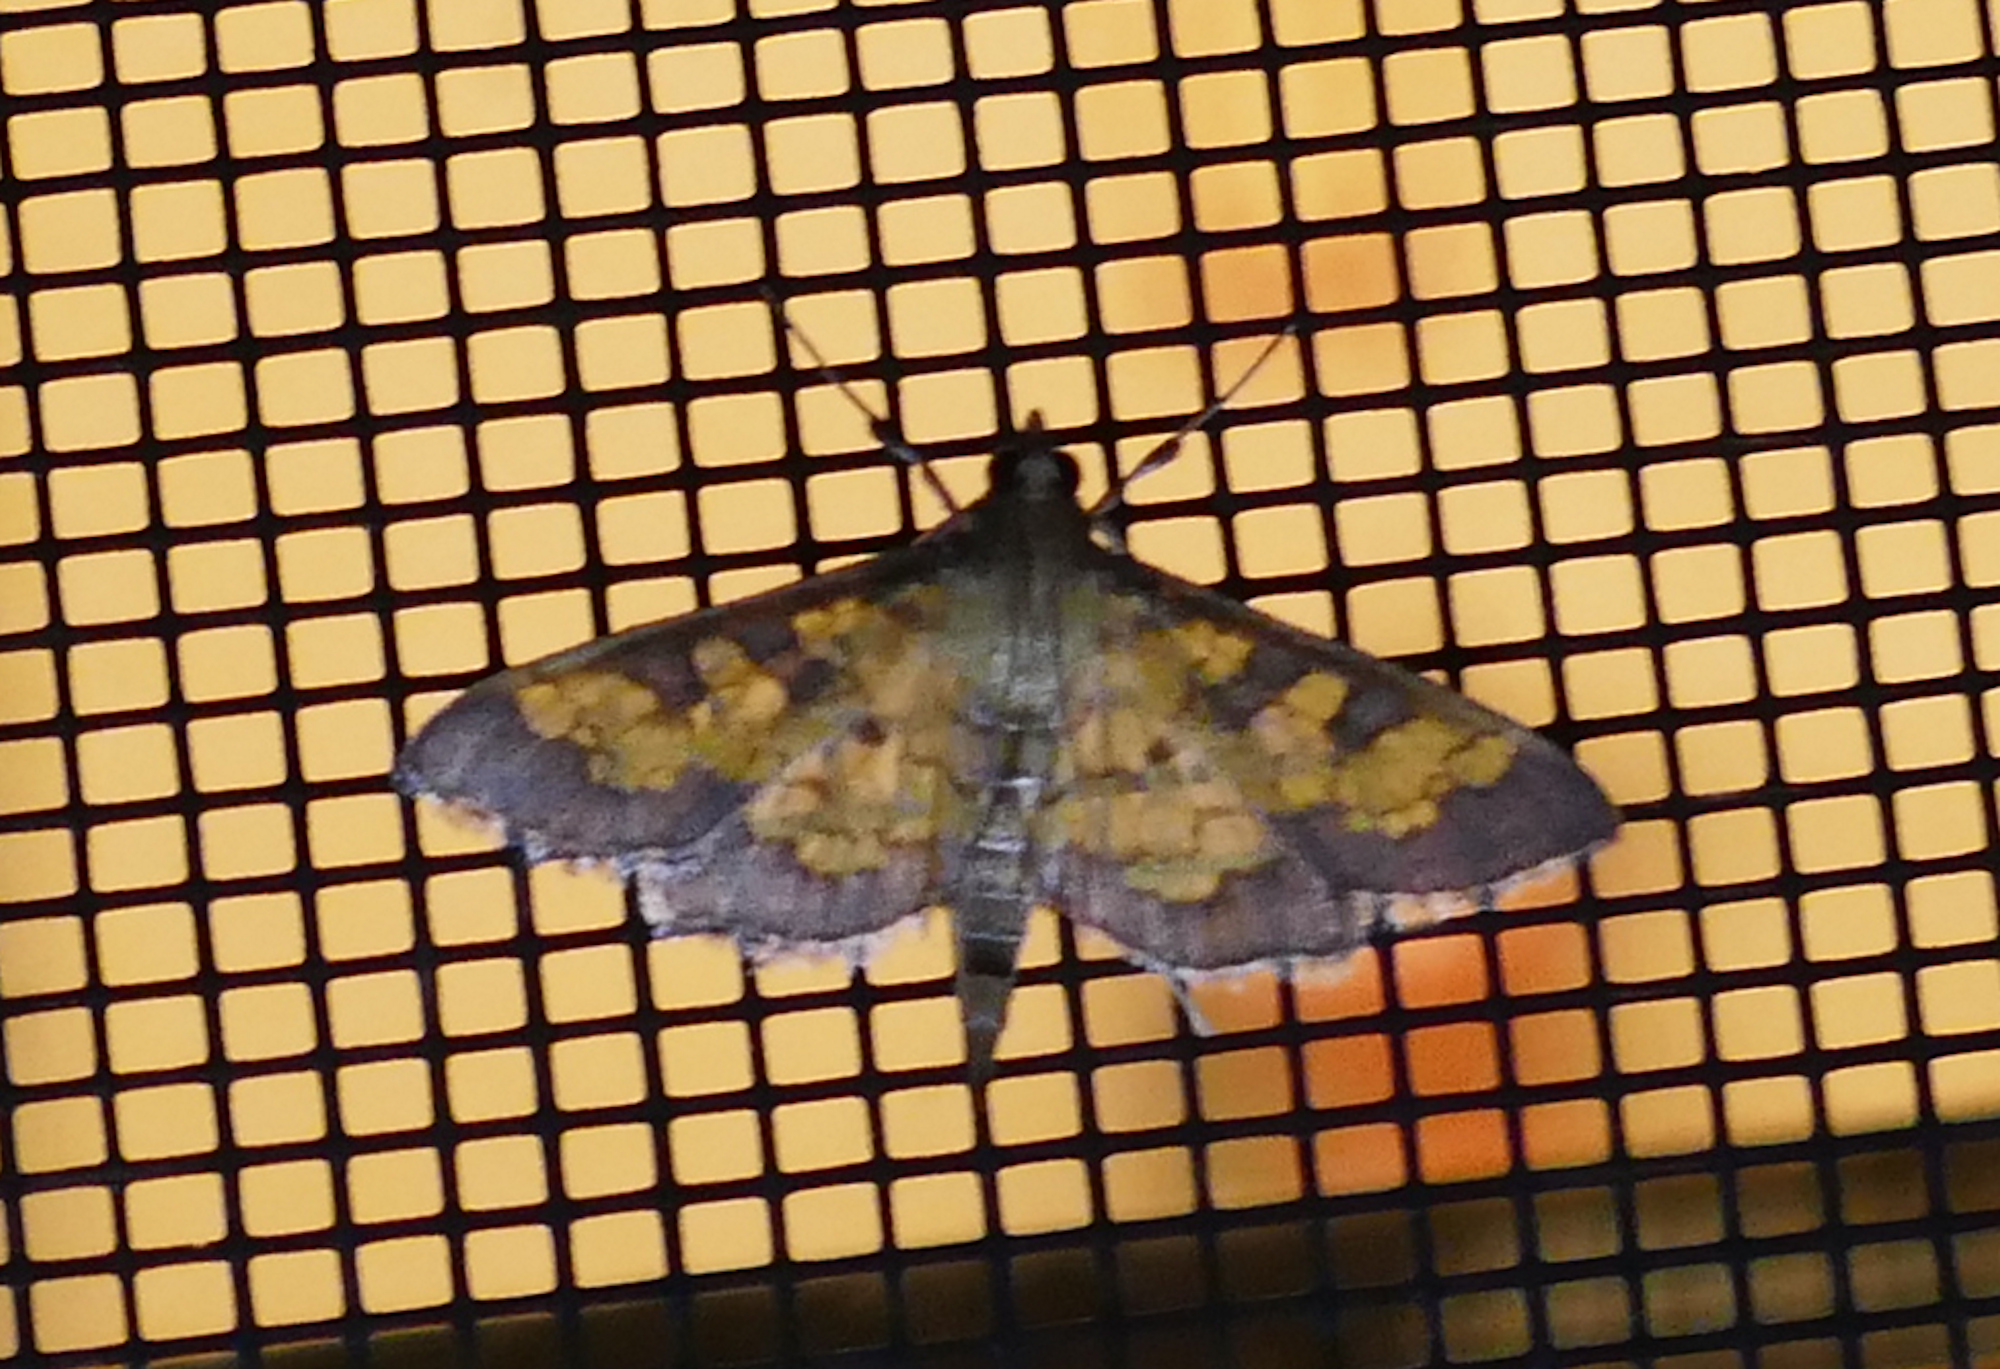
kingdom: Animalia
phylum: Arthropoda
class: Insecta
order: Lepidoptera
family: Crambidae
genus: Epipagis
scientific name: Epipagis adipaloides
